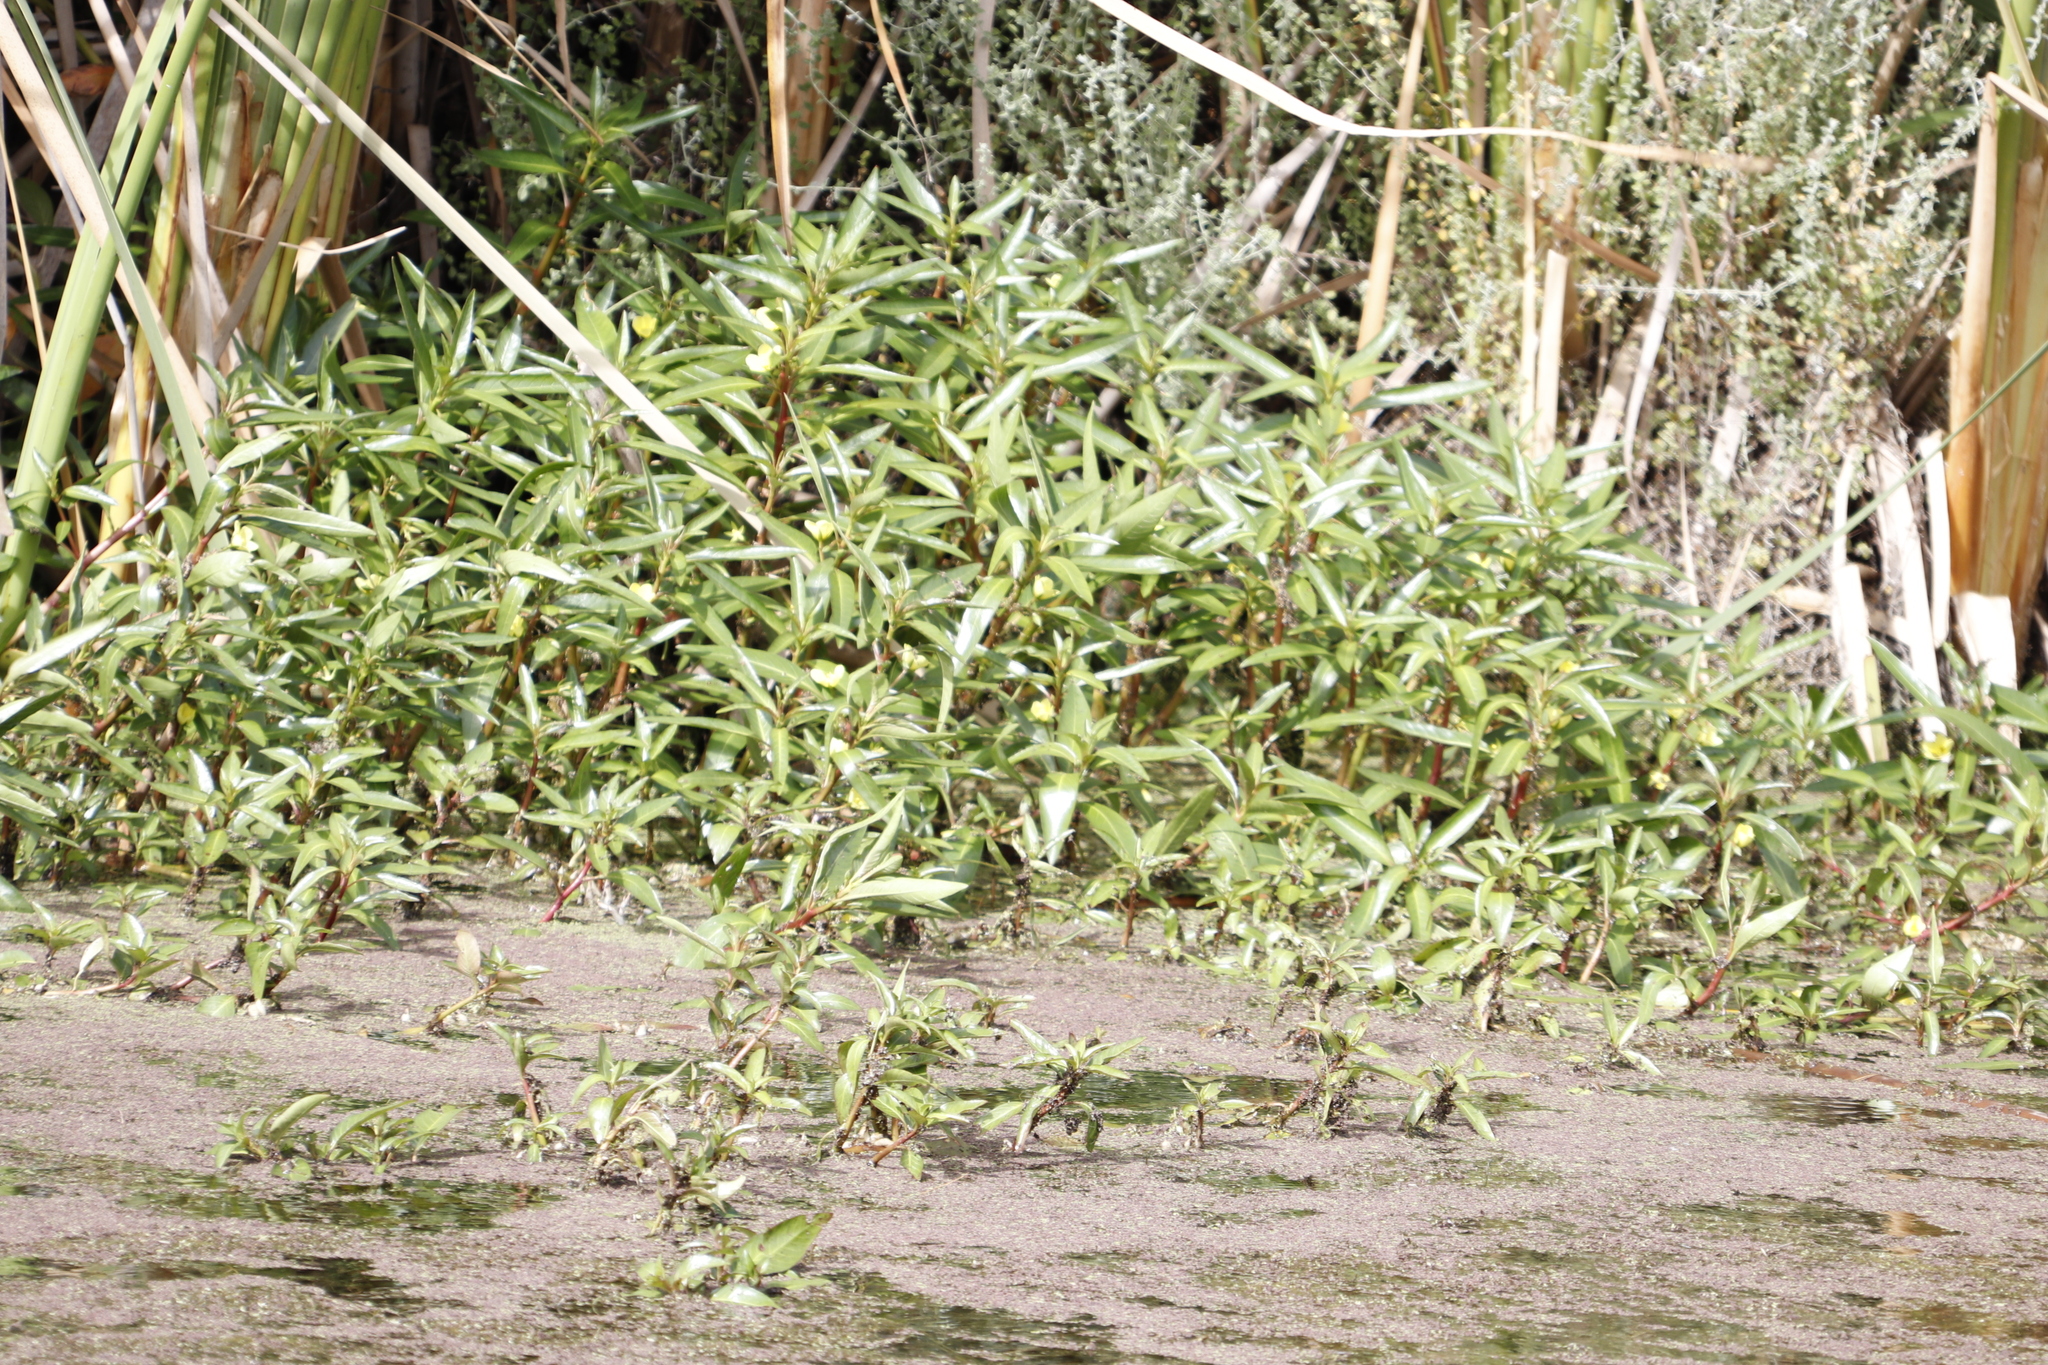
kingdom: Plantae
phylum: Tracheophyta
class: Magnoliopsida
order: Myrtales
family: Onagraceae
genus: Ludwigia
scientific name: Ludwigia adscendens
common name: Creeping water primrose
